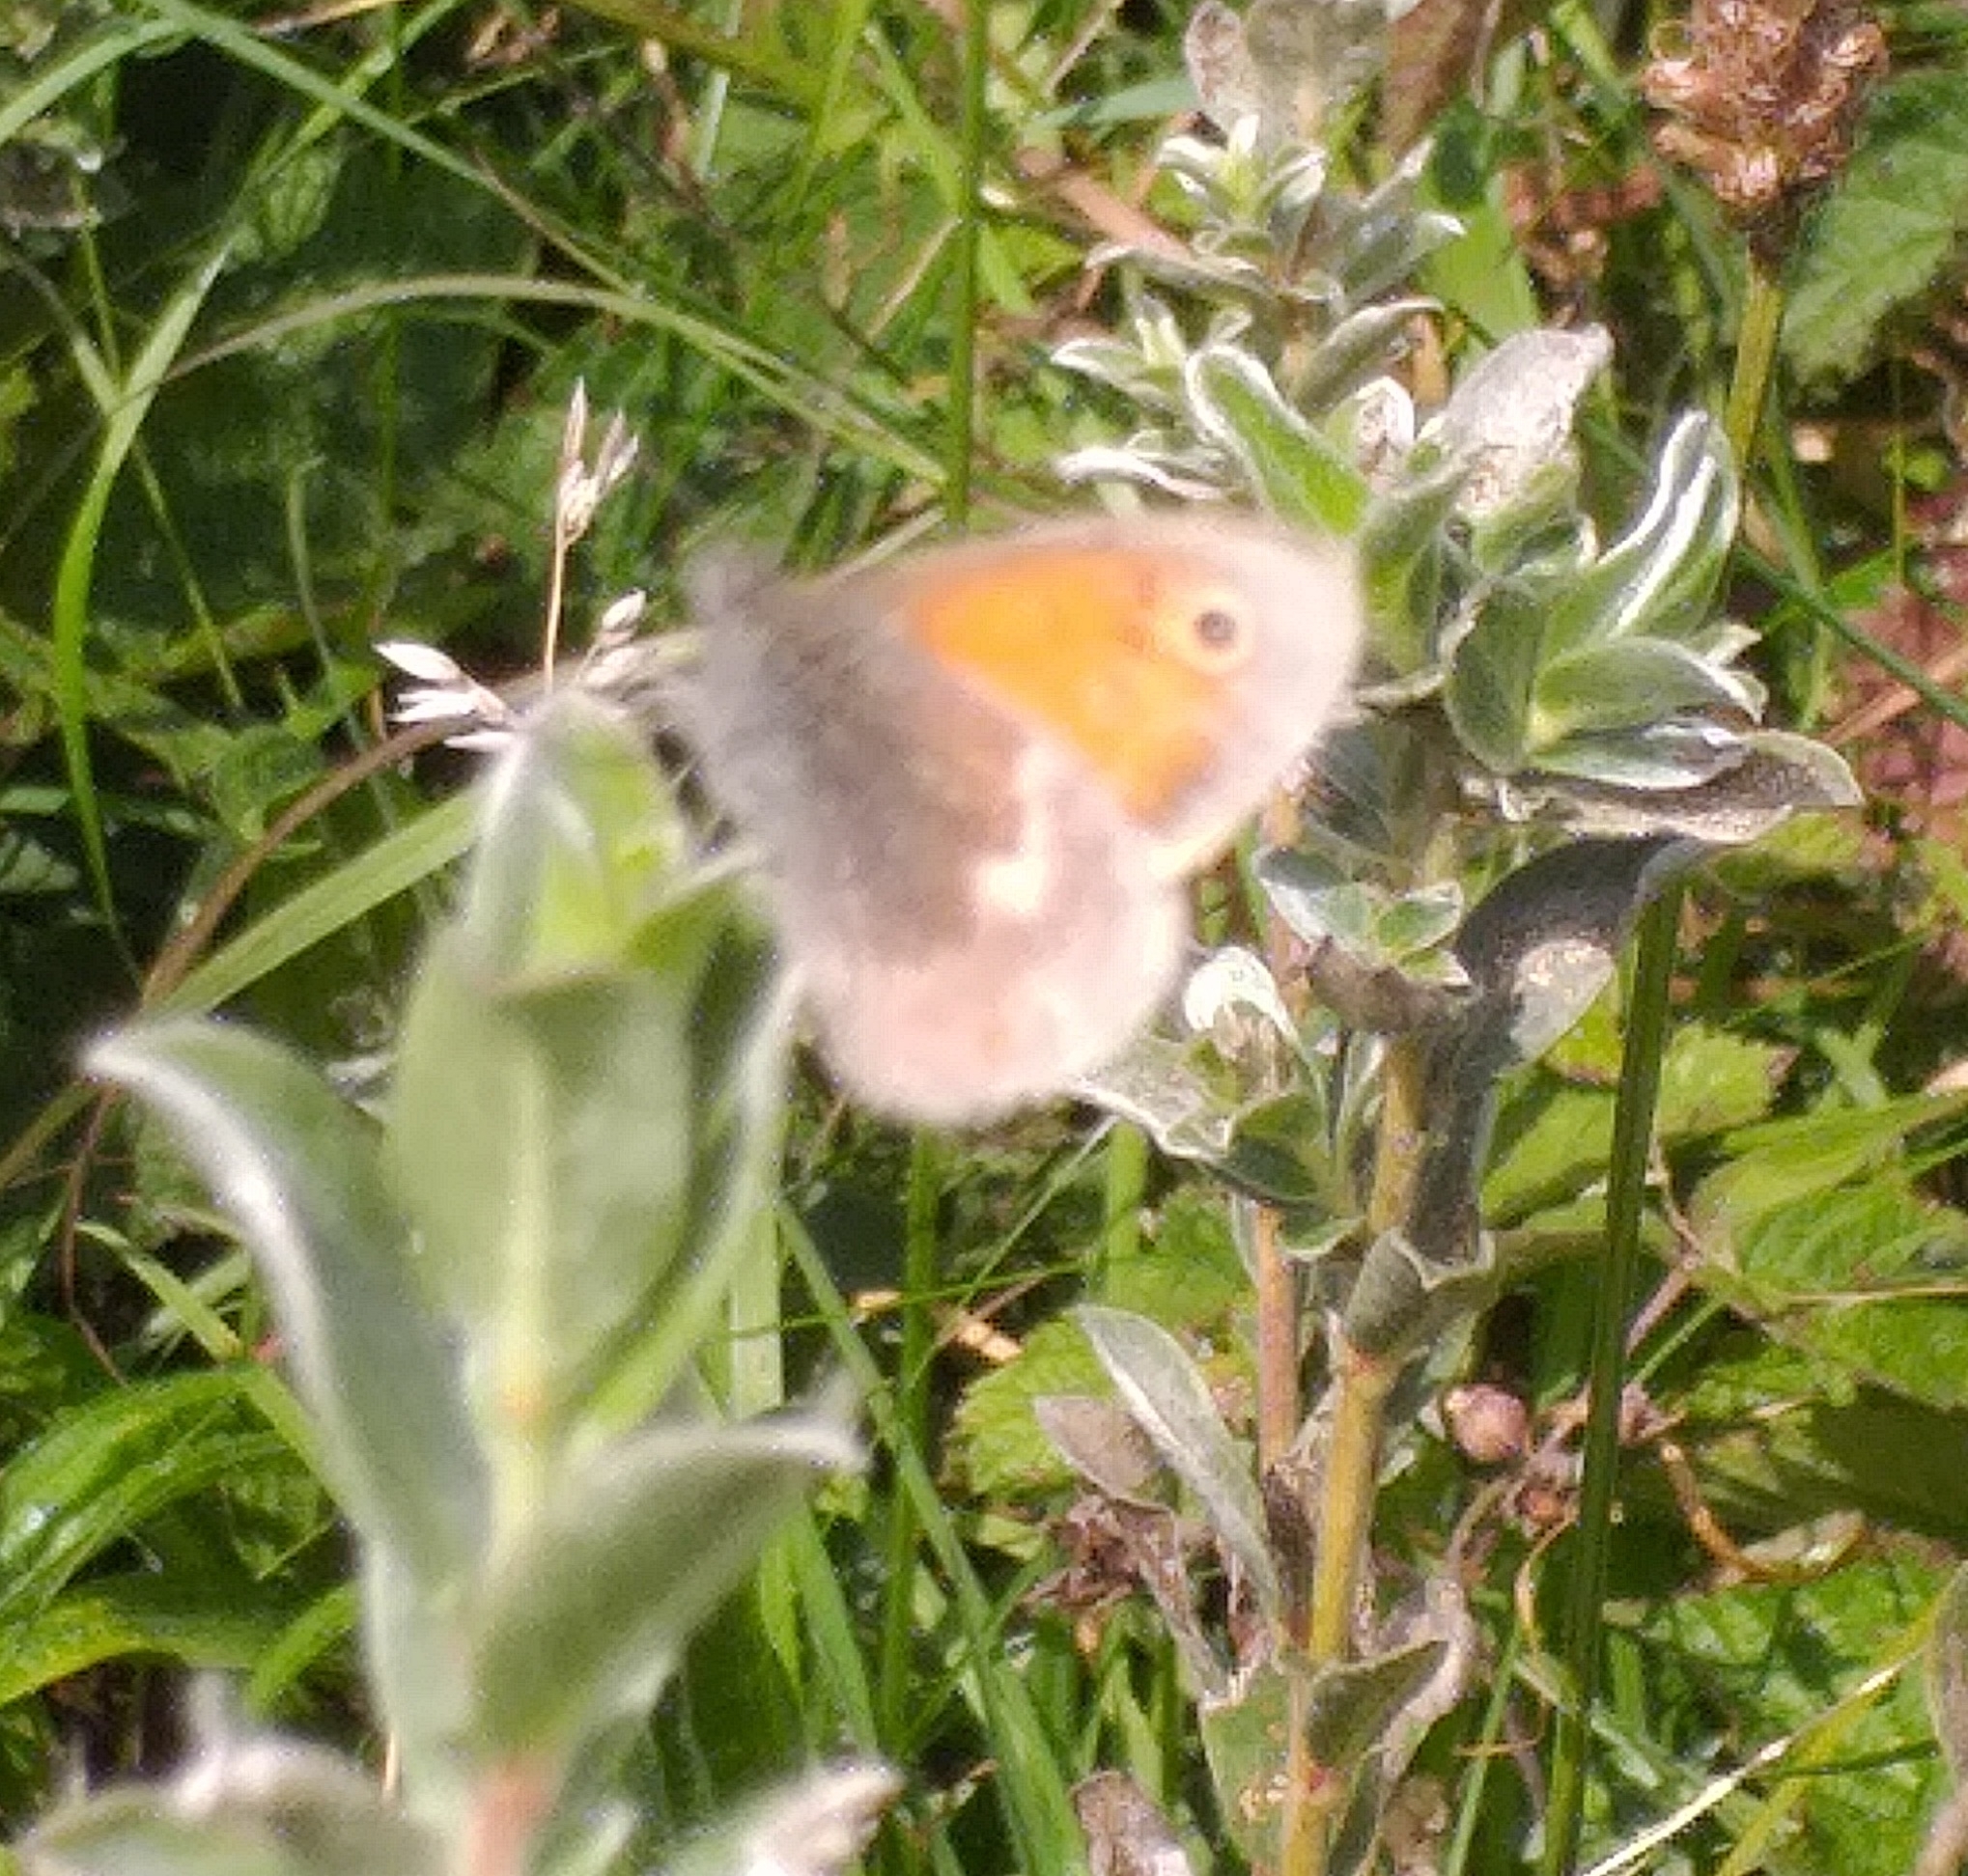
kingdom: Animalia
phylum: Arthropoda
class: Insecta
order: Lepidoptera
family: Nymphalidae
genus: Coenonympha
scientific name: Coenonympha pamphilus
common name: Small heath
